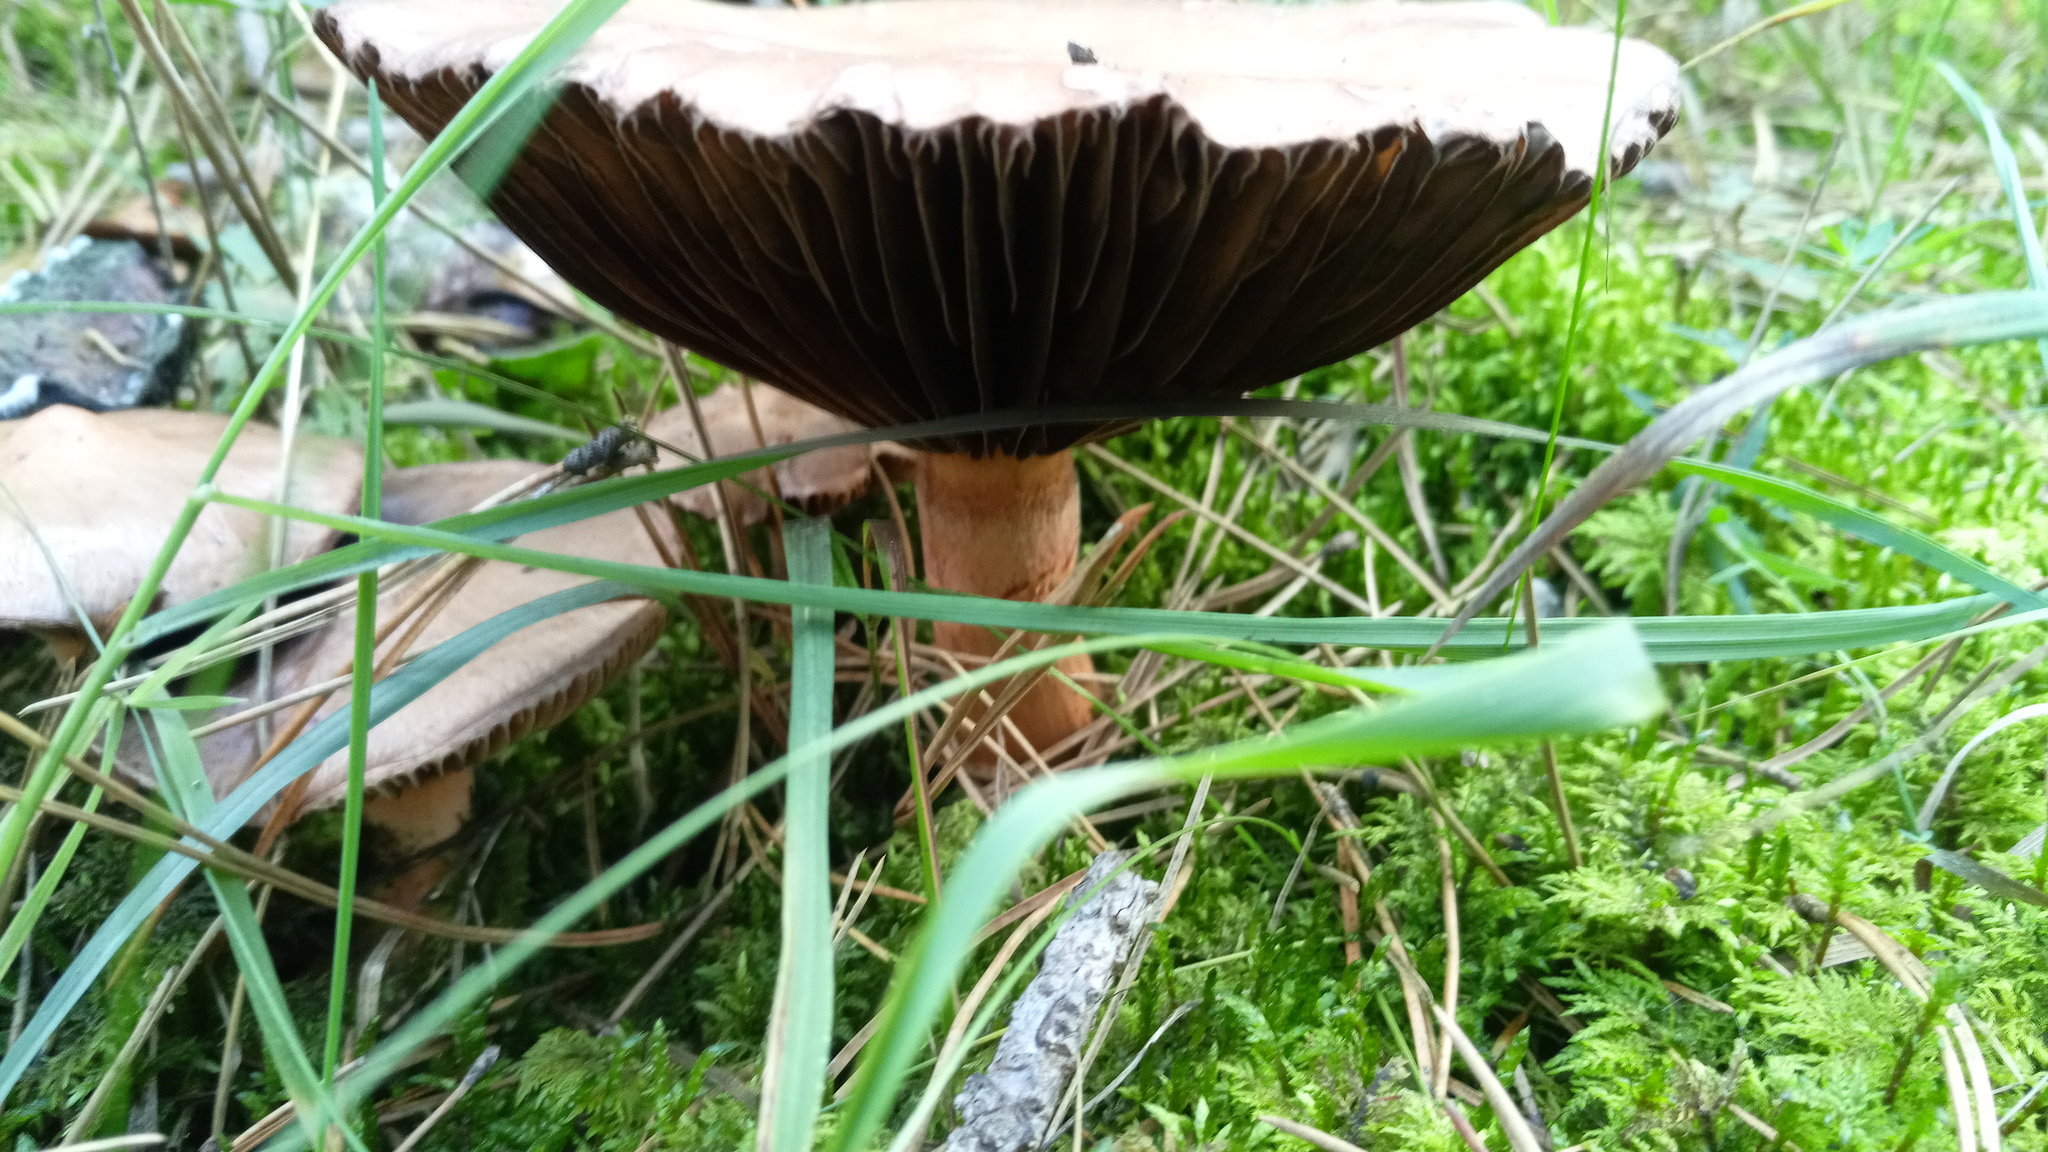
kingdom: Fungi
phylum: Basidiomycota
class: Agaricomycetes
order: Boletales
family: Gomphidiaceae
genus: Chroogomphus
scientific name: Chroogomphus
